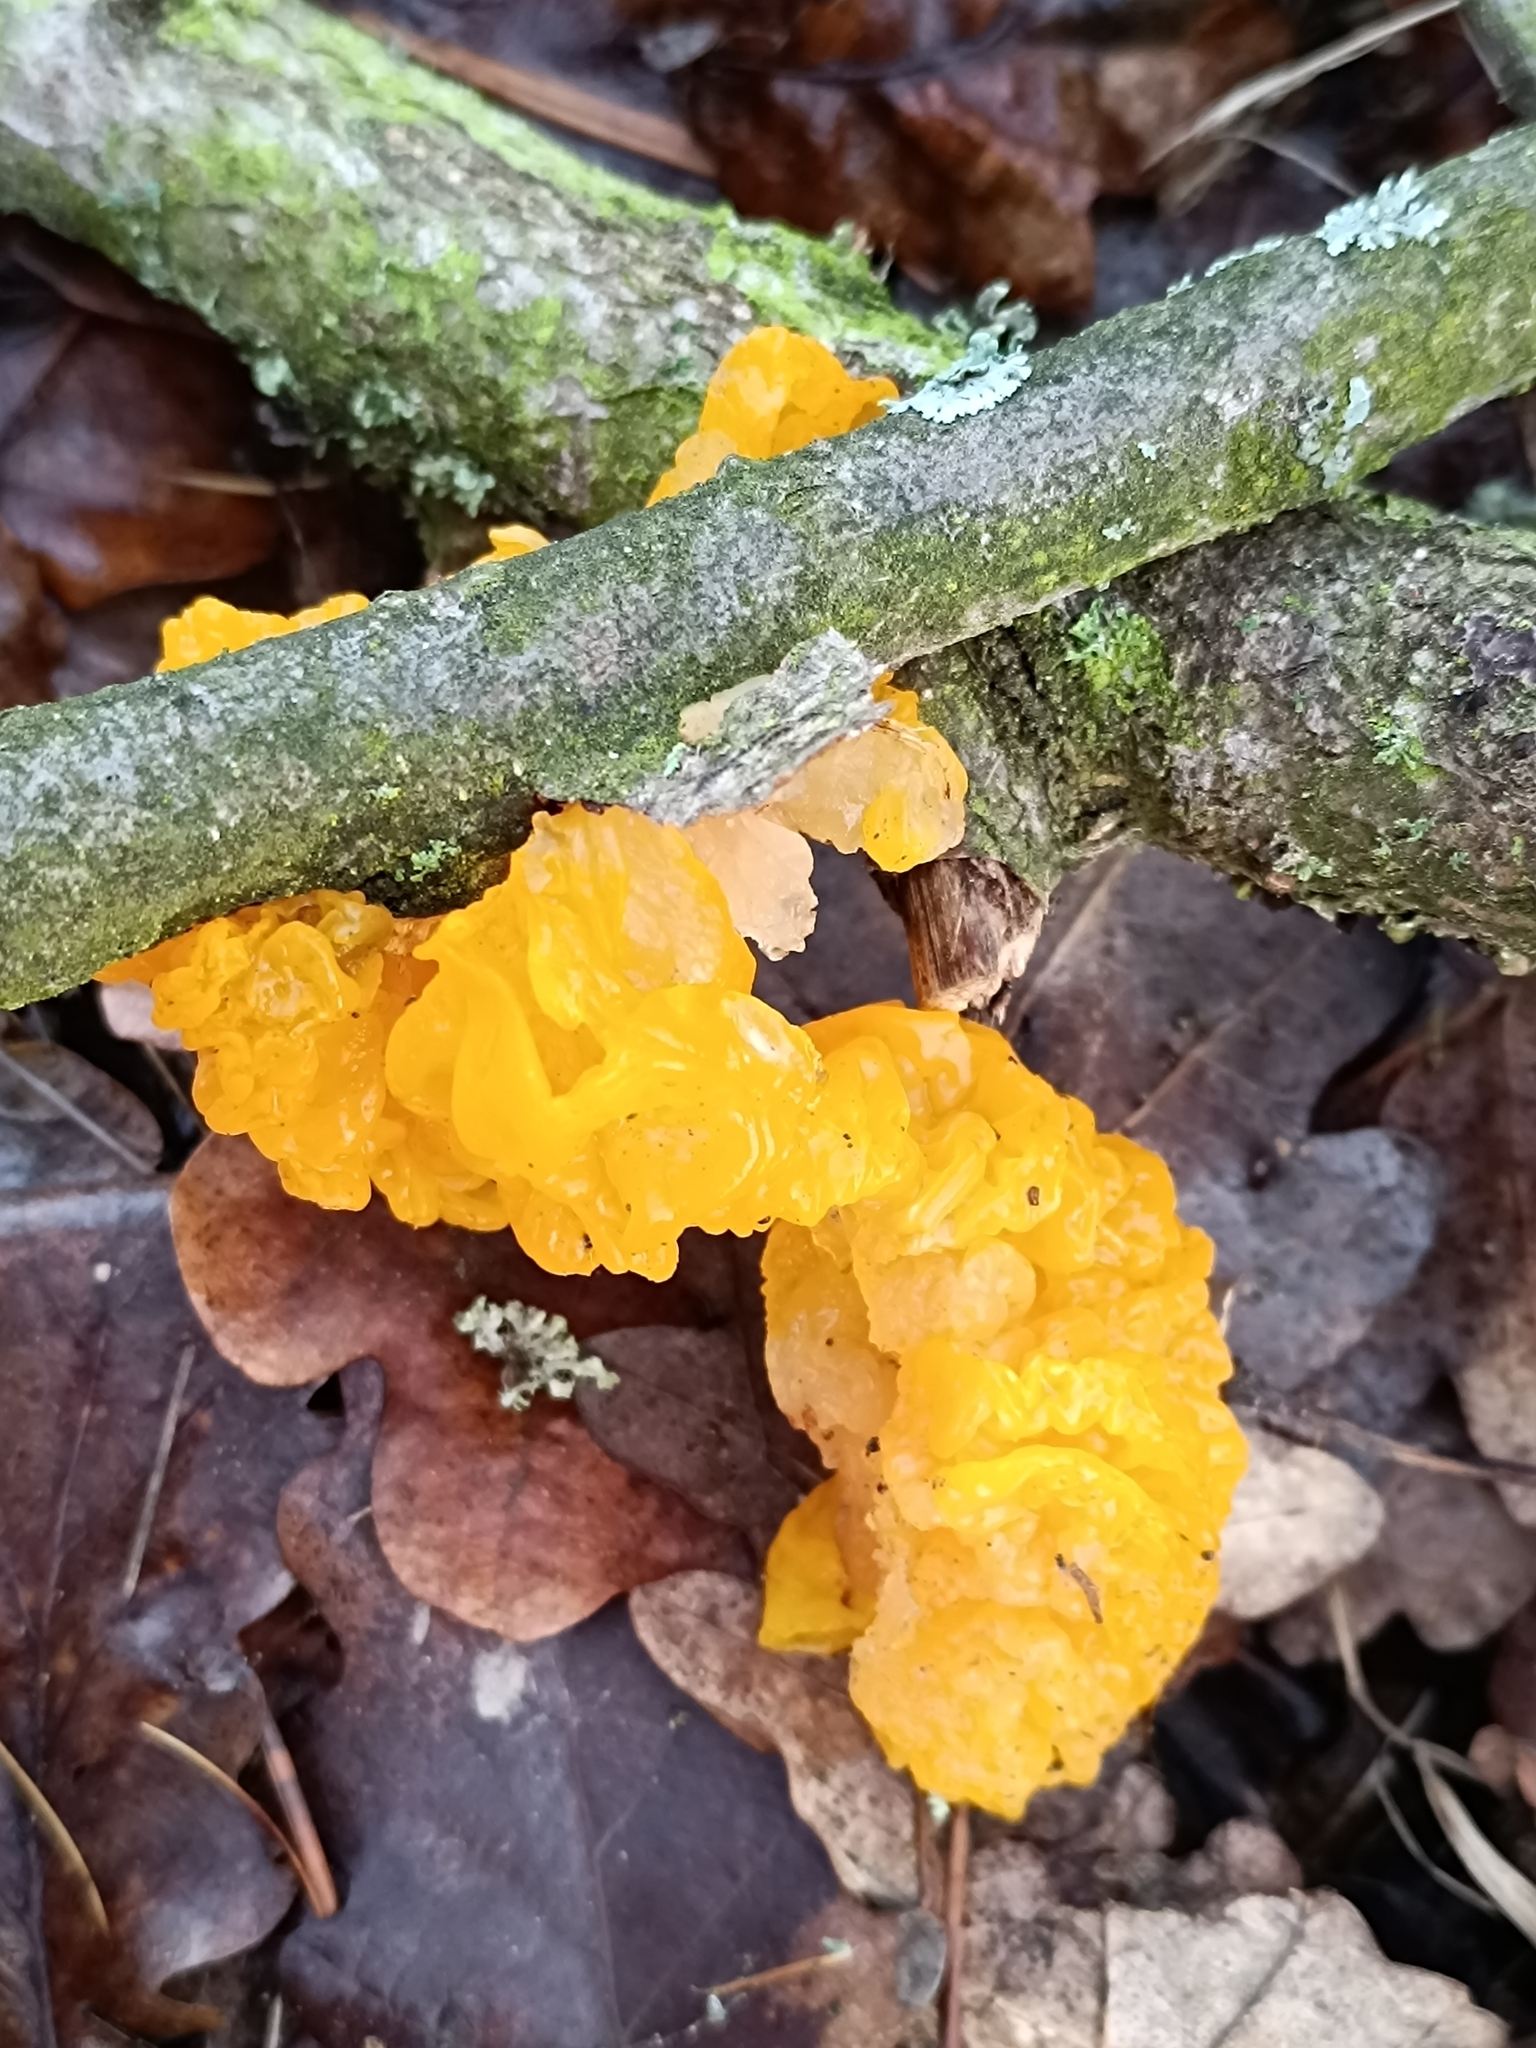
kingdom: Fungi
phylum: Basidiomycota
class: Tremellomycetes
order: Tremellales
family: Tremellaceae
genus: Tremella
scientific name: Tremella mesenterica
